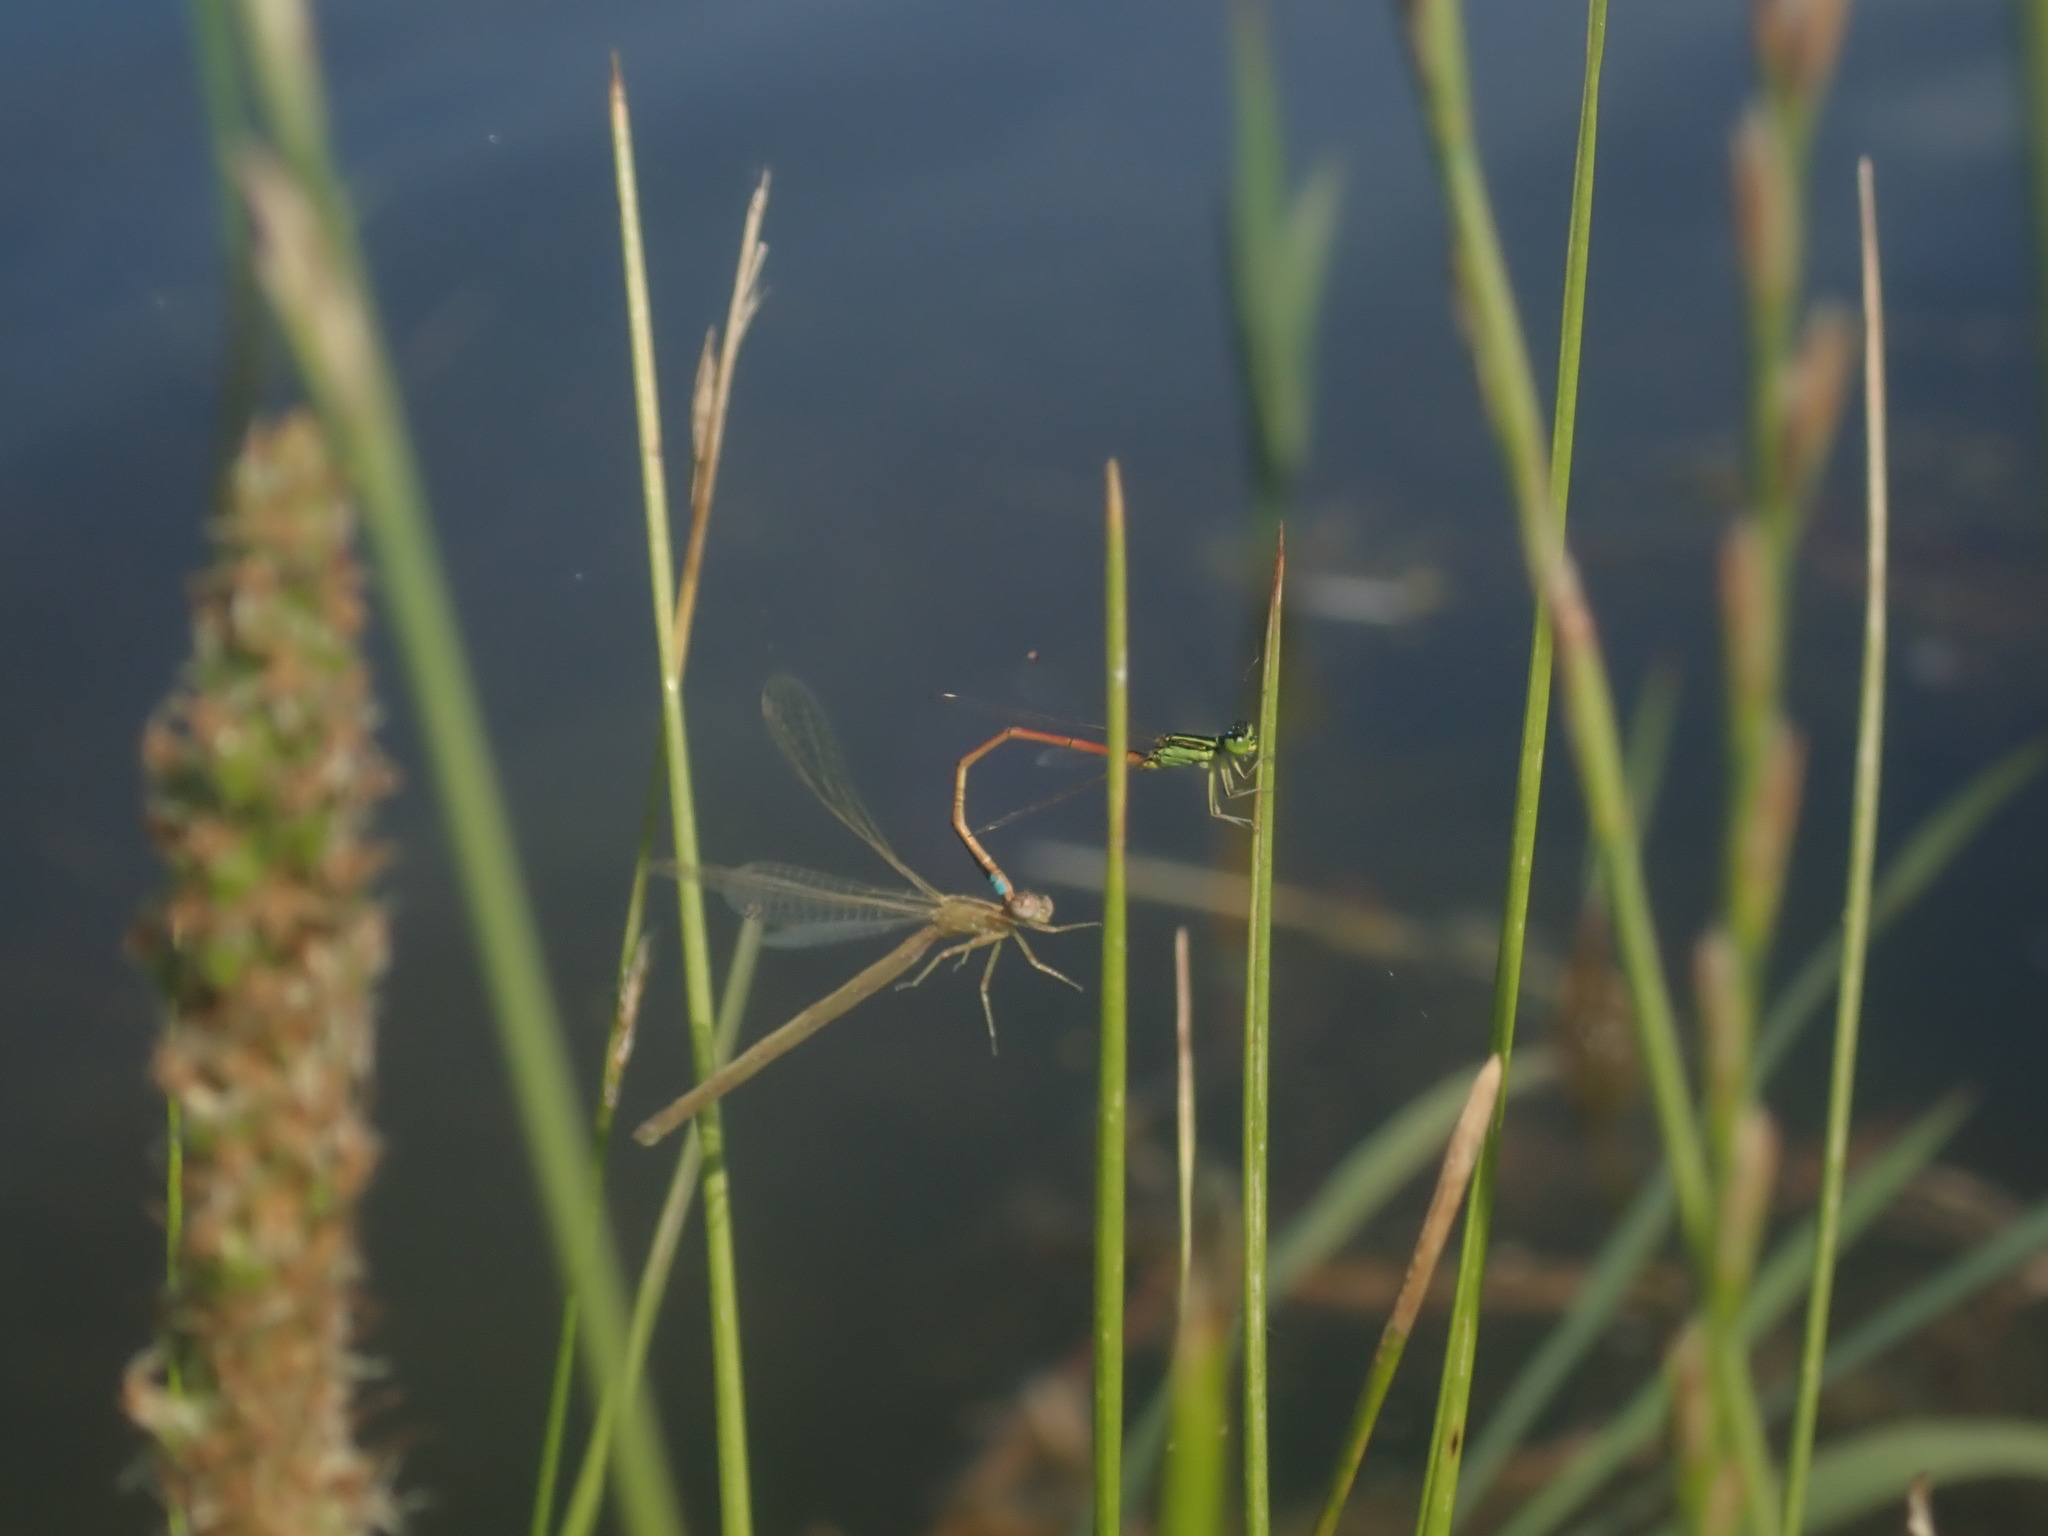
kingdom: Animalia
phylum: Arthropoda
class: Insecta
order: Odonata
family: Coenagrionidae
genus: Ischnura
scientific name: Ischnura aurora
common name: Gossamer damselfly
